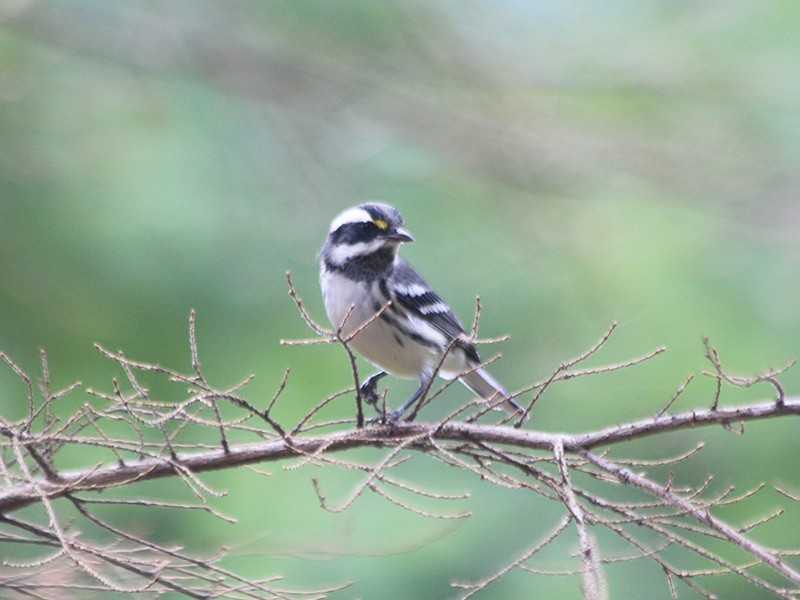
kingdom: Animalia
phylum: Chordata
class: Aves
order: Passeriformes
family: Parulidae
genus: Setophaga
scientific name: Setophaga nigrescens
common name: Black-throated gray warbler
